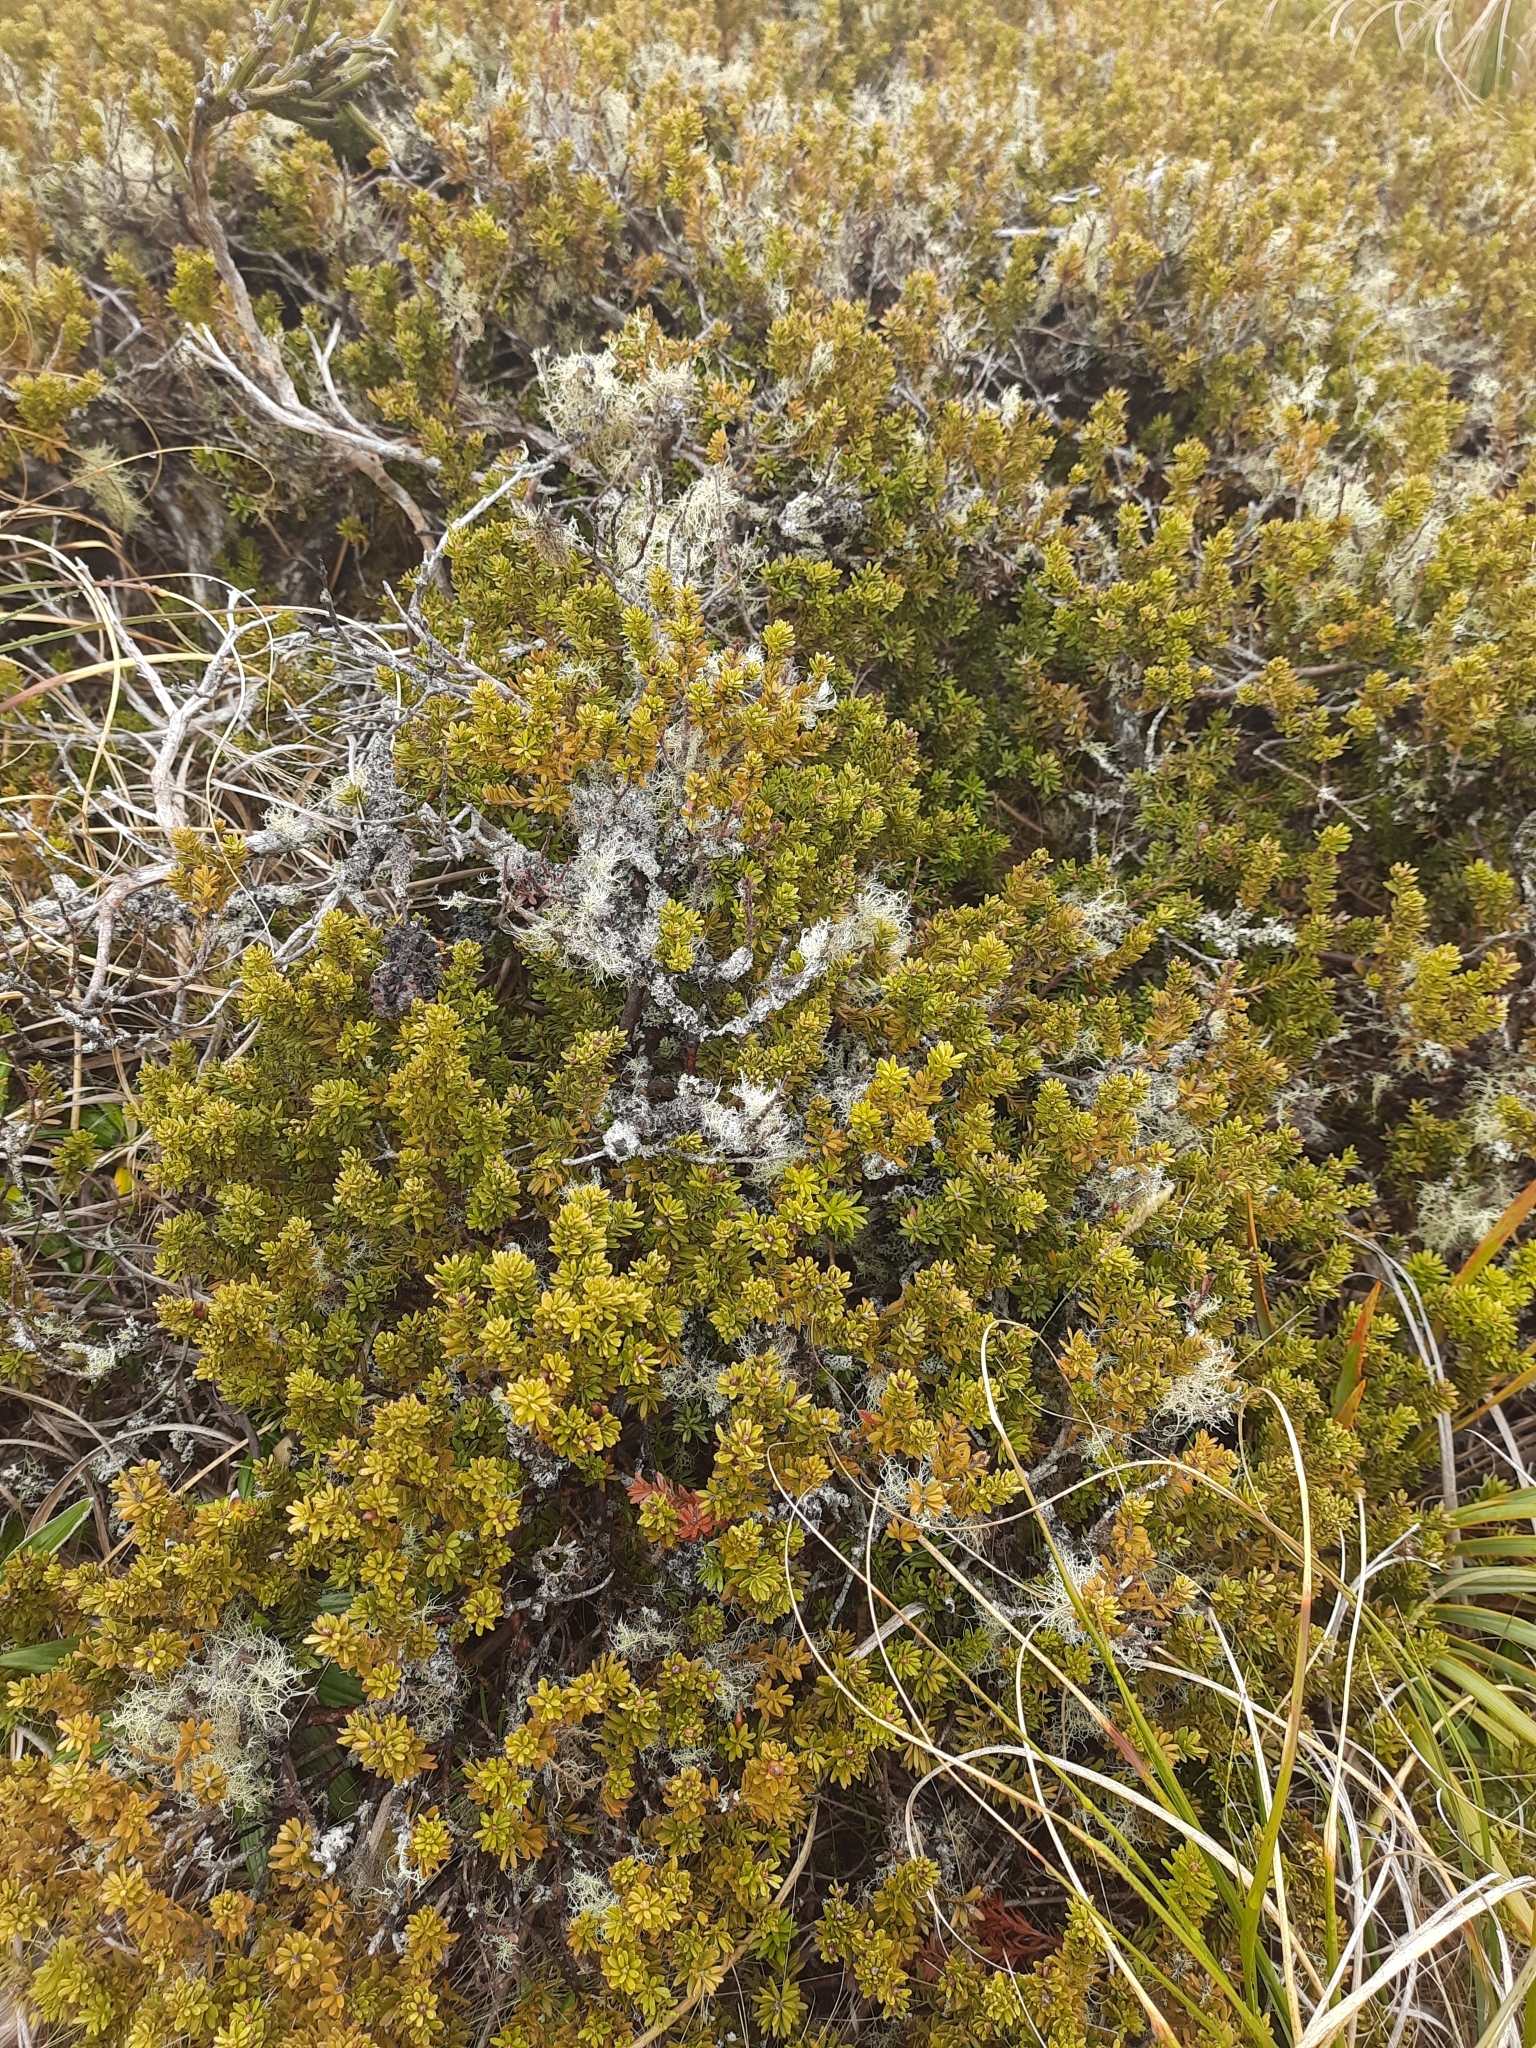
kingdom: Plantae
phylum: Tracheophyta
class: Pinopsida
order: Pinales
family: Podocarpaceae
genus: Podocarpus
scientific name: Podocarpus nivalis
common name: Alpine totara
